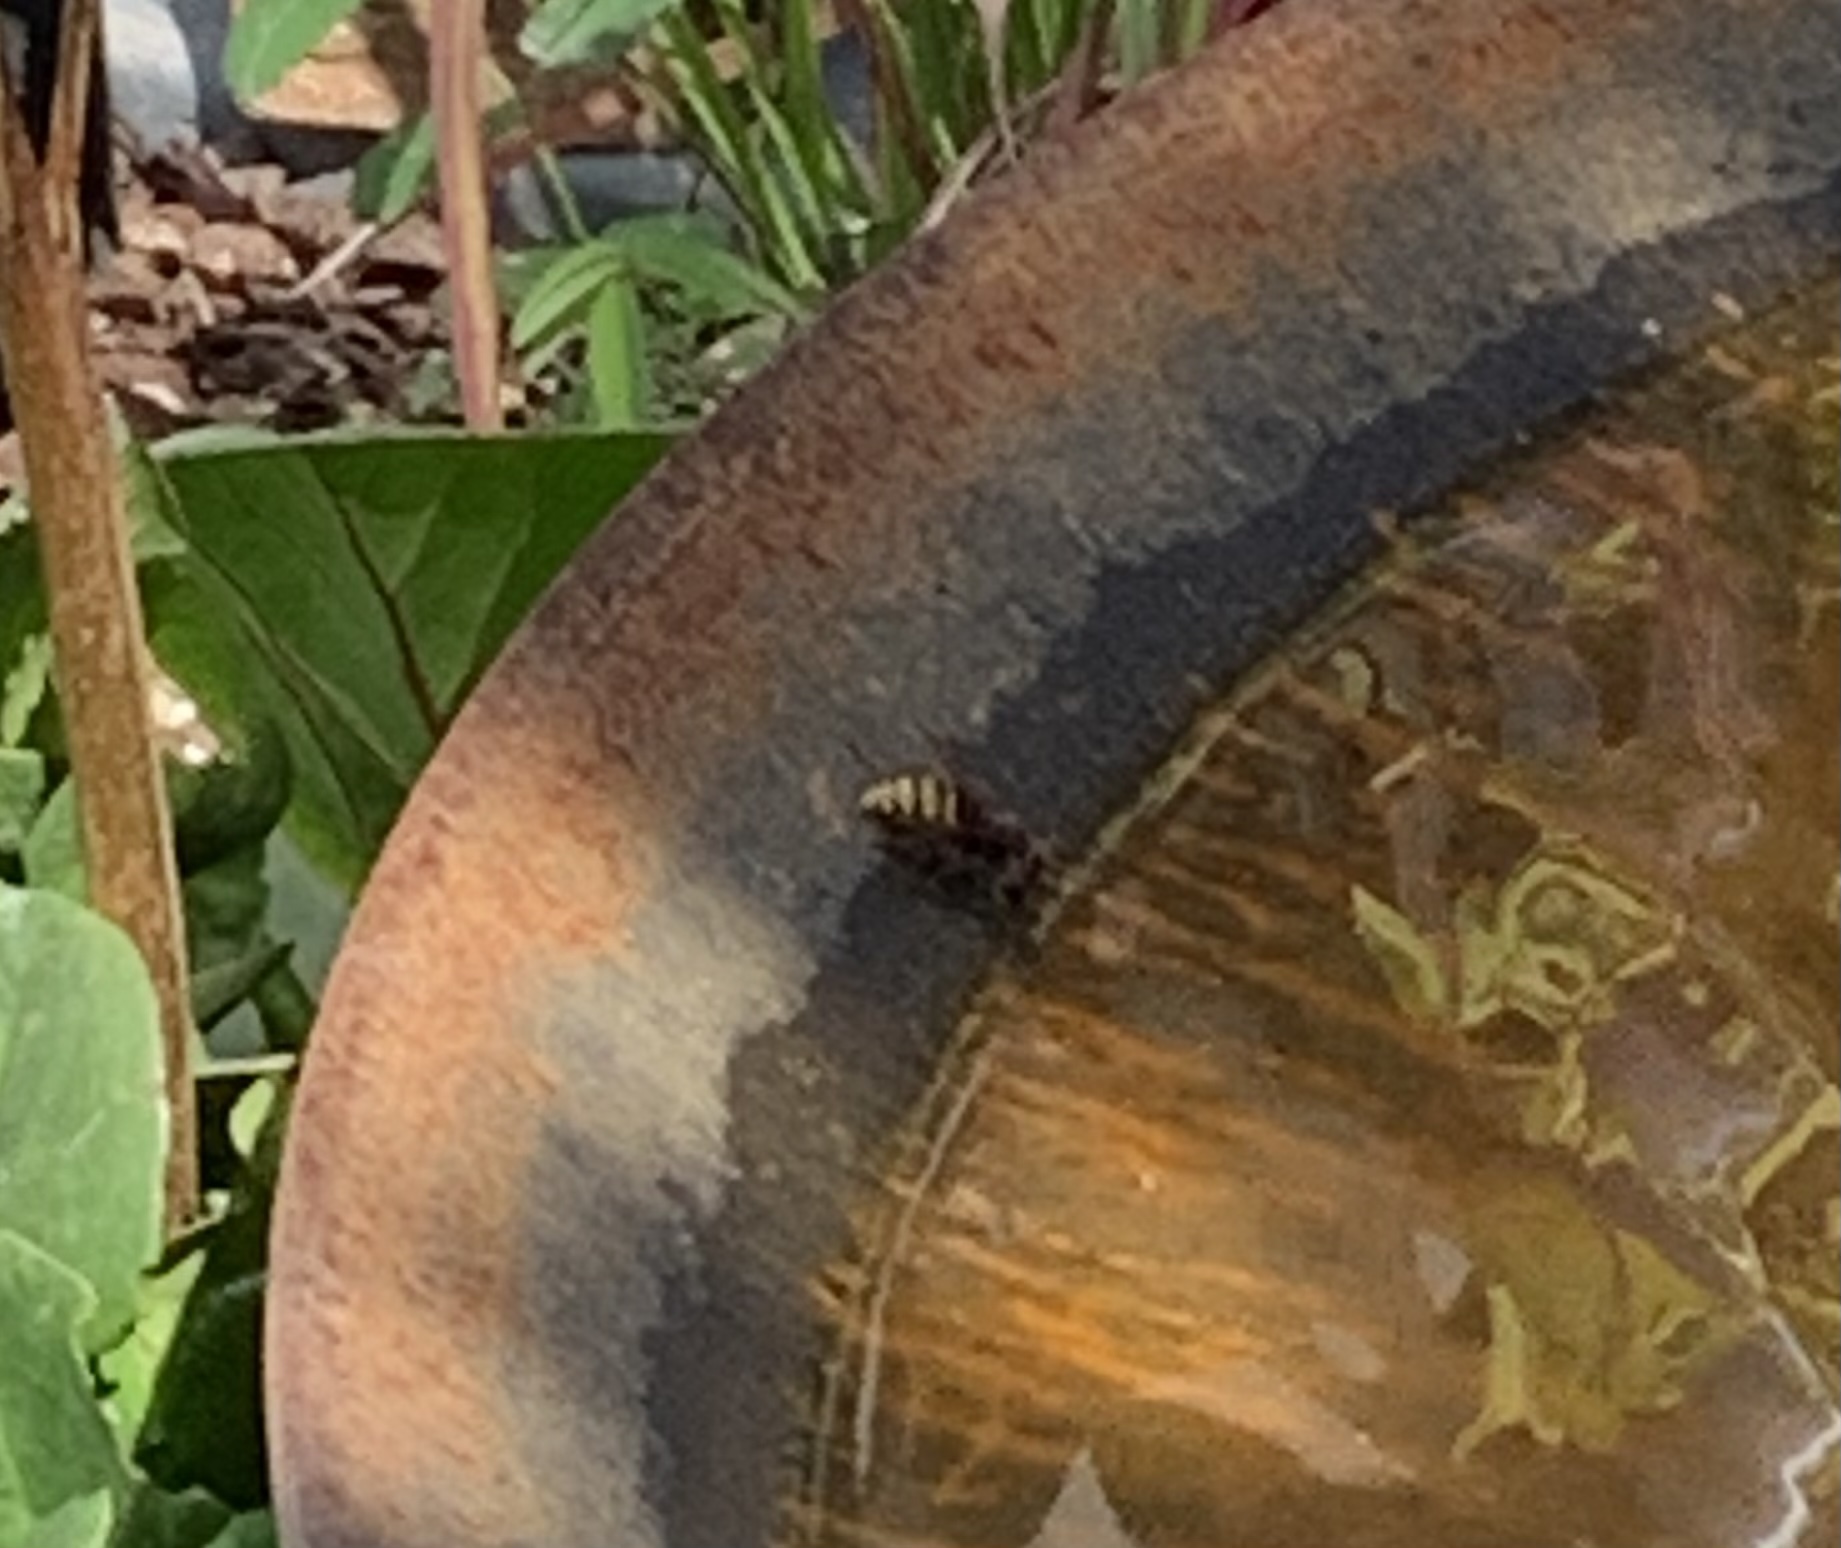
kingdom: Animalia
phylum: Arthropoda
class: Insecta
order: Hymenoptera
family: Vespidae
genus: Vespa
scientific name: Vespa crabro
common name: Hornet
